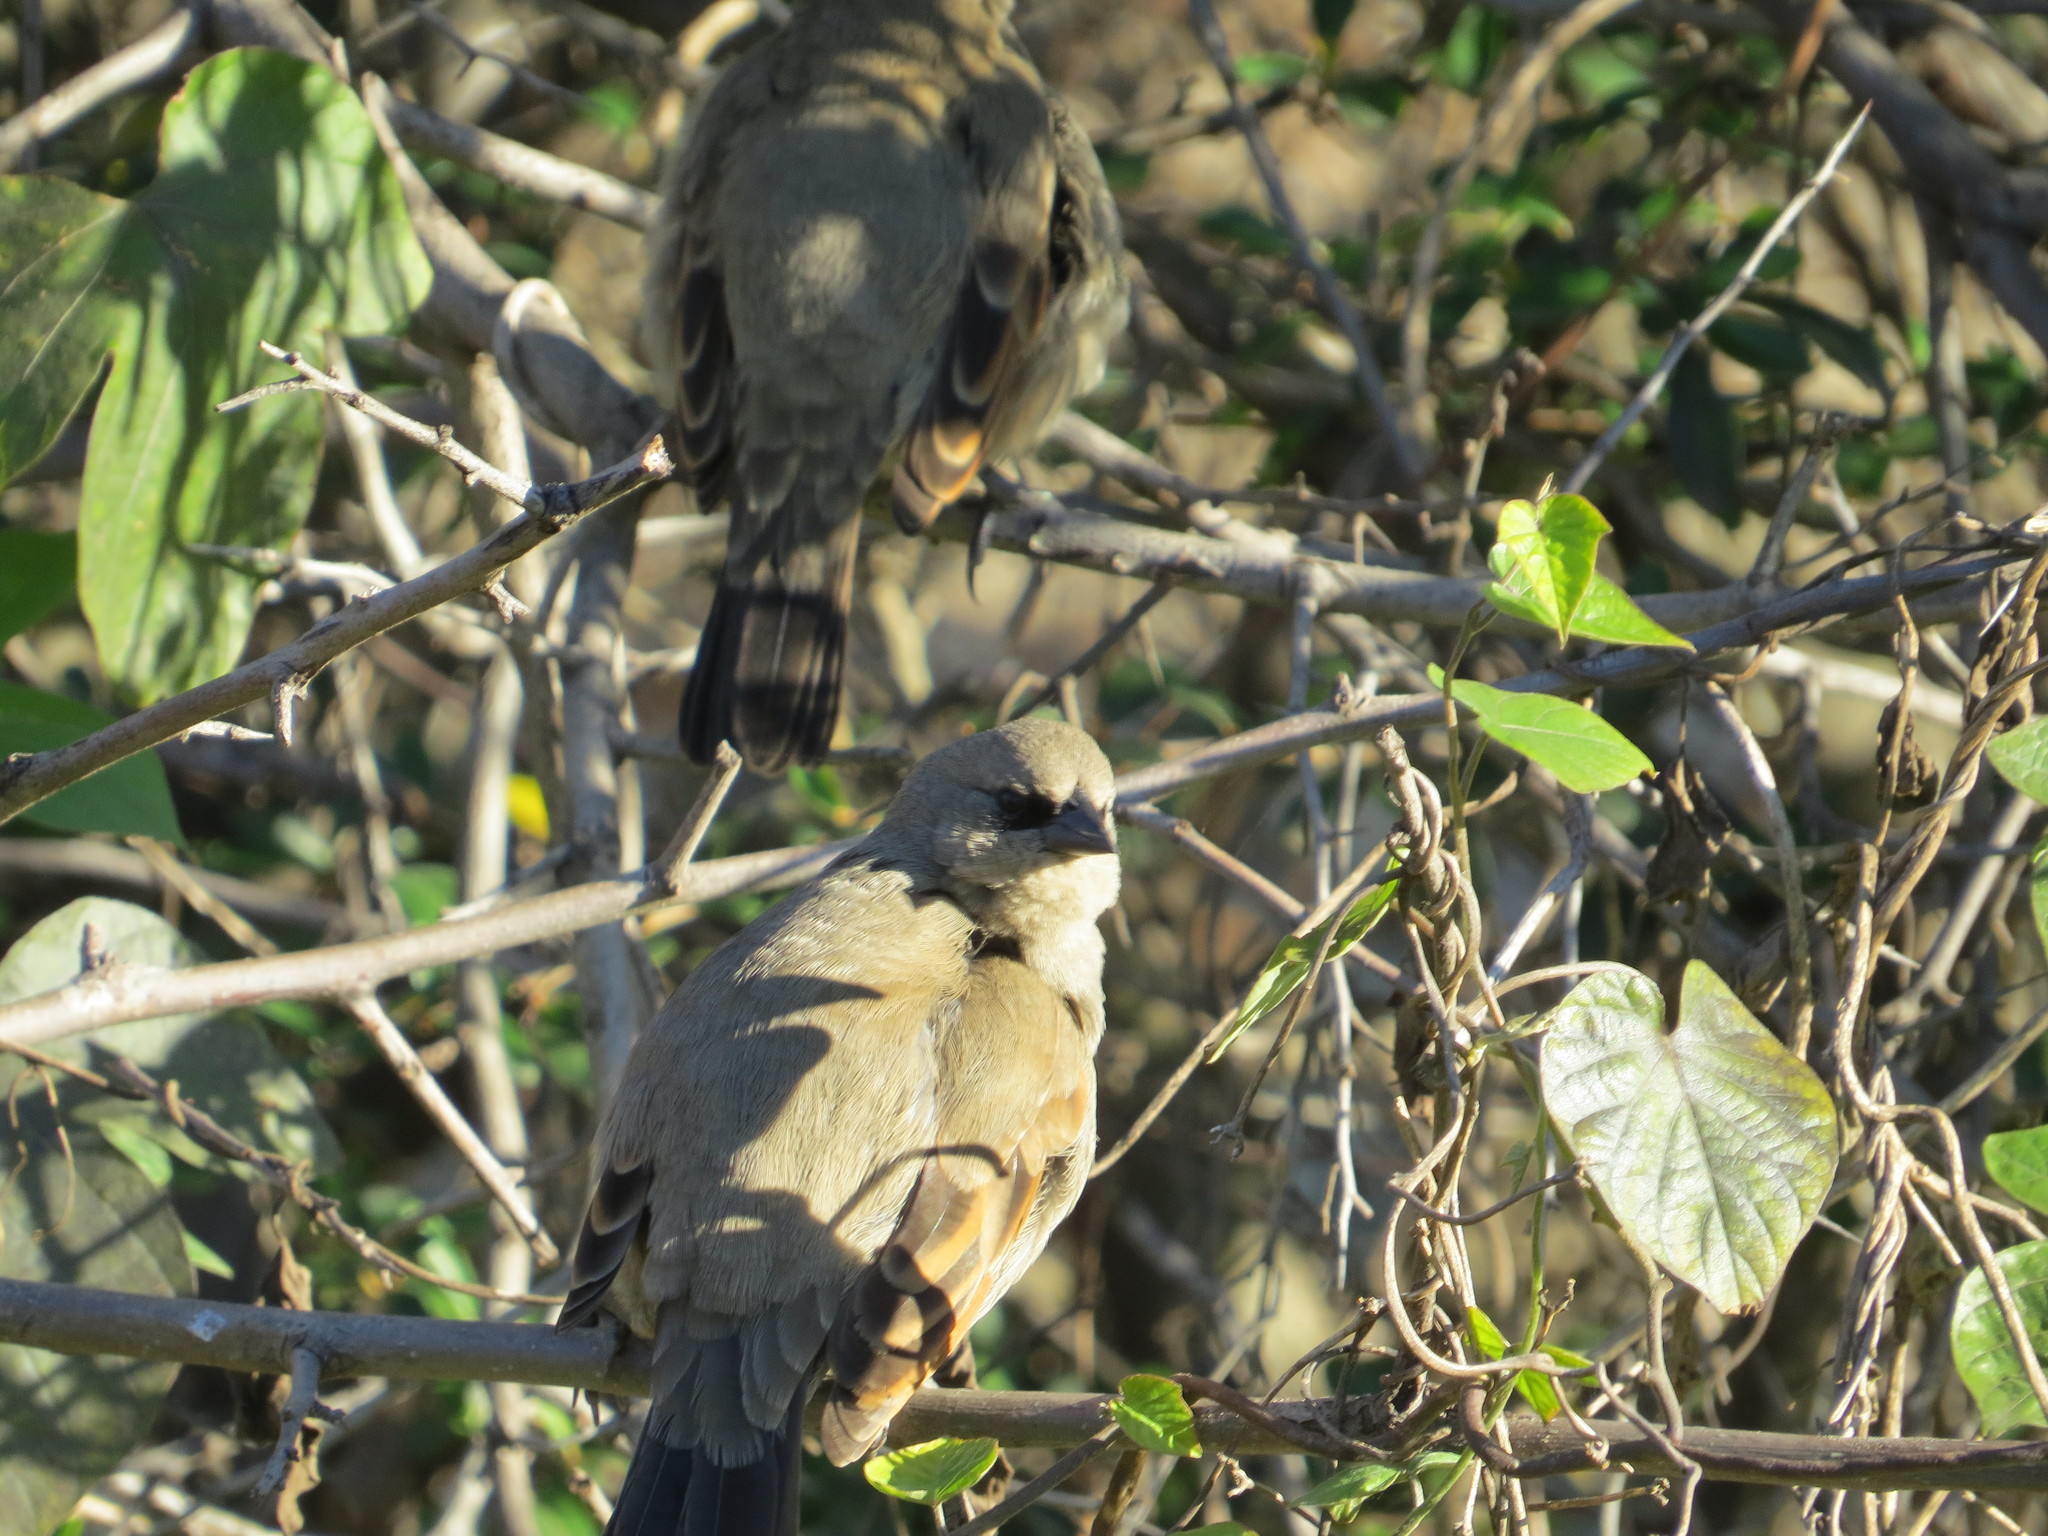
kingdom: Animalia
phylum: Chordata
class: Aves
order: Passeriformes
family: Icteridae
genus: Agelaioides
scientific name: Agelaioides badius
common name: Baywing
